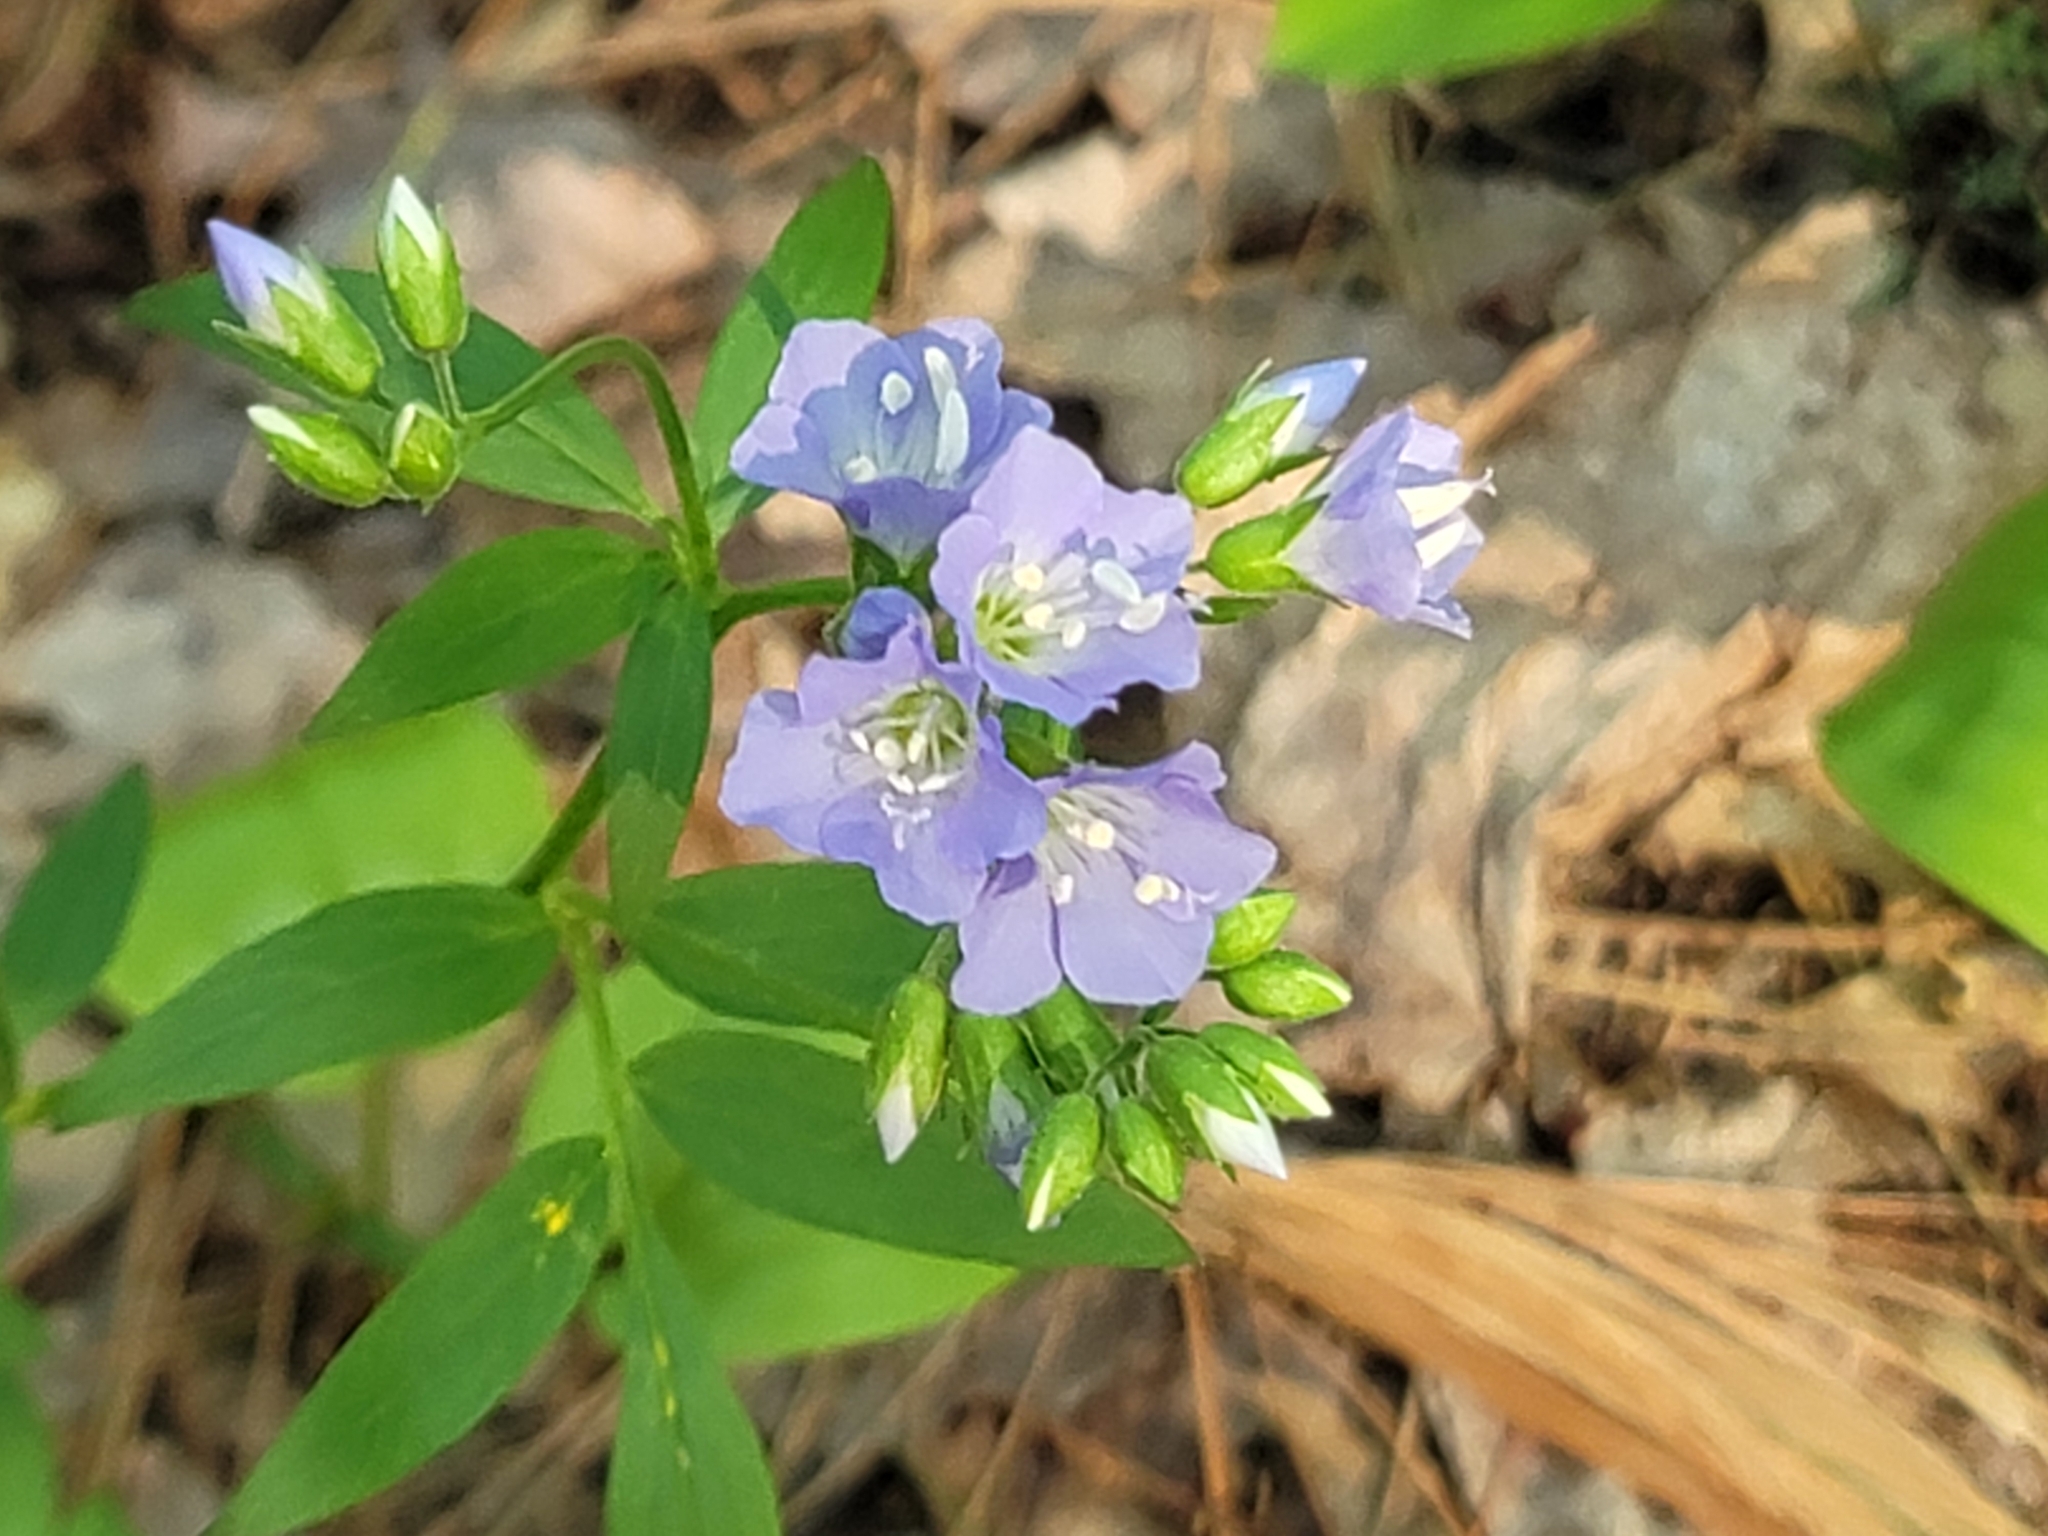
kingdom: Plantae
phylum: Tracheophyta
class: Magnoliopsida
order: Ericales
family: Polemoniaceae
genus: Polemonium
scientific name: Polemonium reptans
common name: Creeping jacob's-ladder
